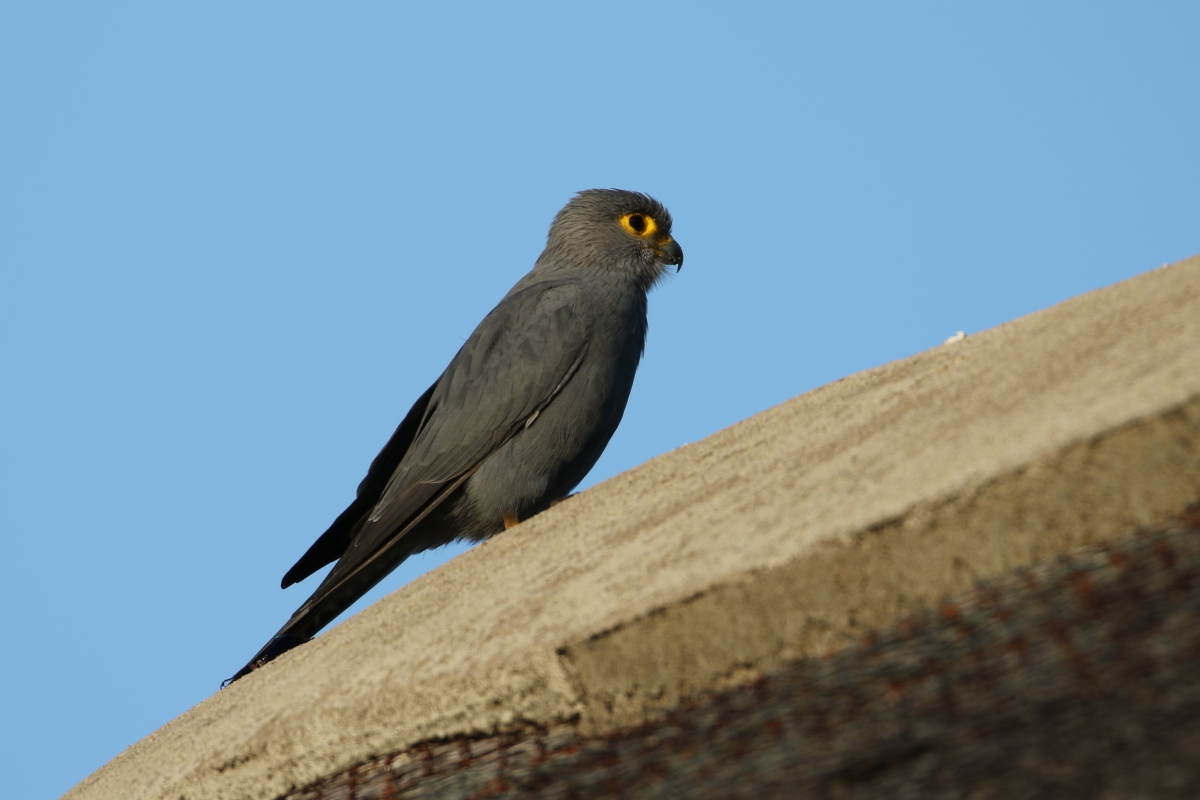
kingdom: Animalia
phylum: Chordata
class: Aves
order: Falconiformes
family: Falconidae
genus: Falco
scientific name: Falco ardosiaceus
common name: Grey kestrel
